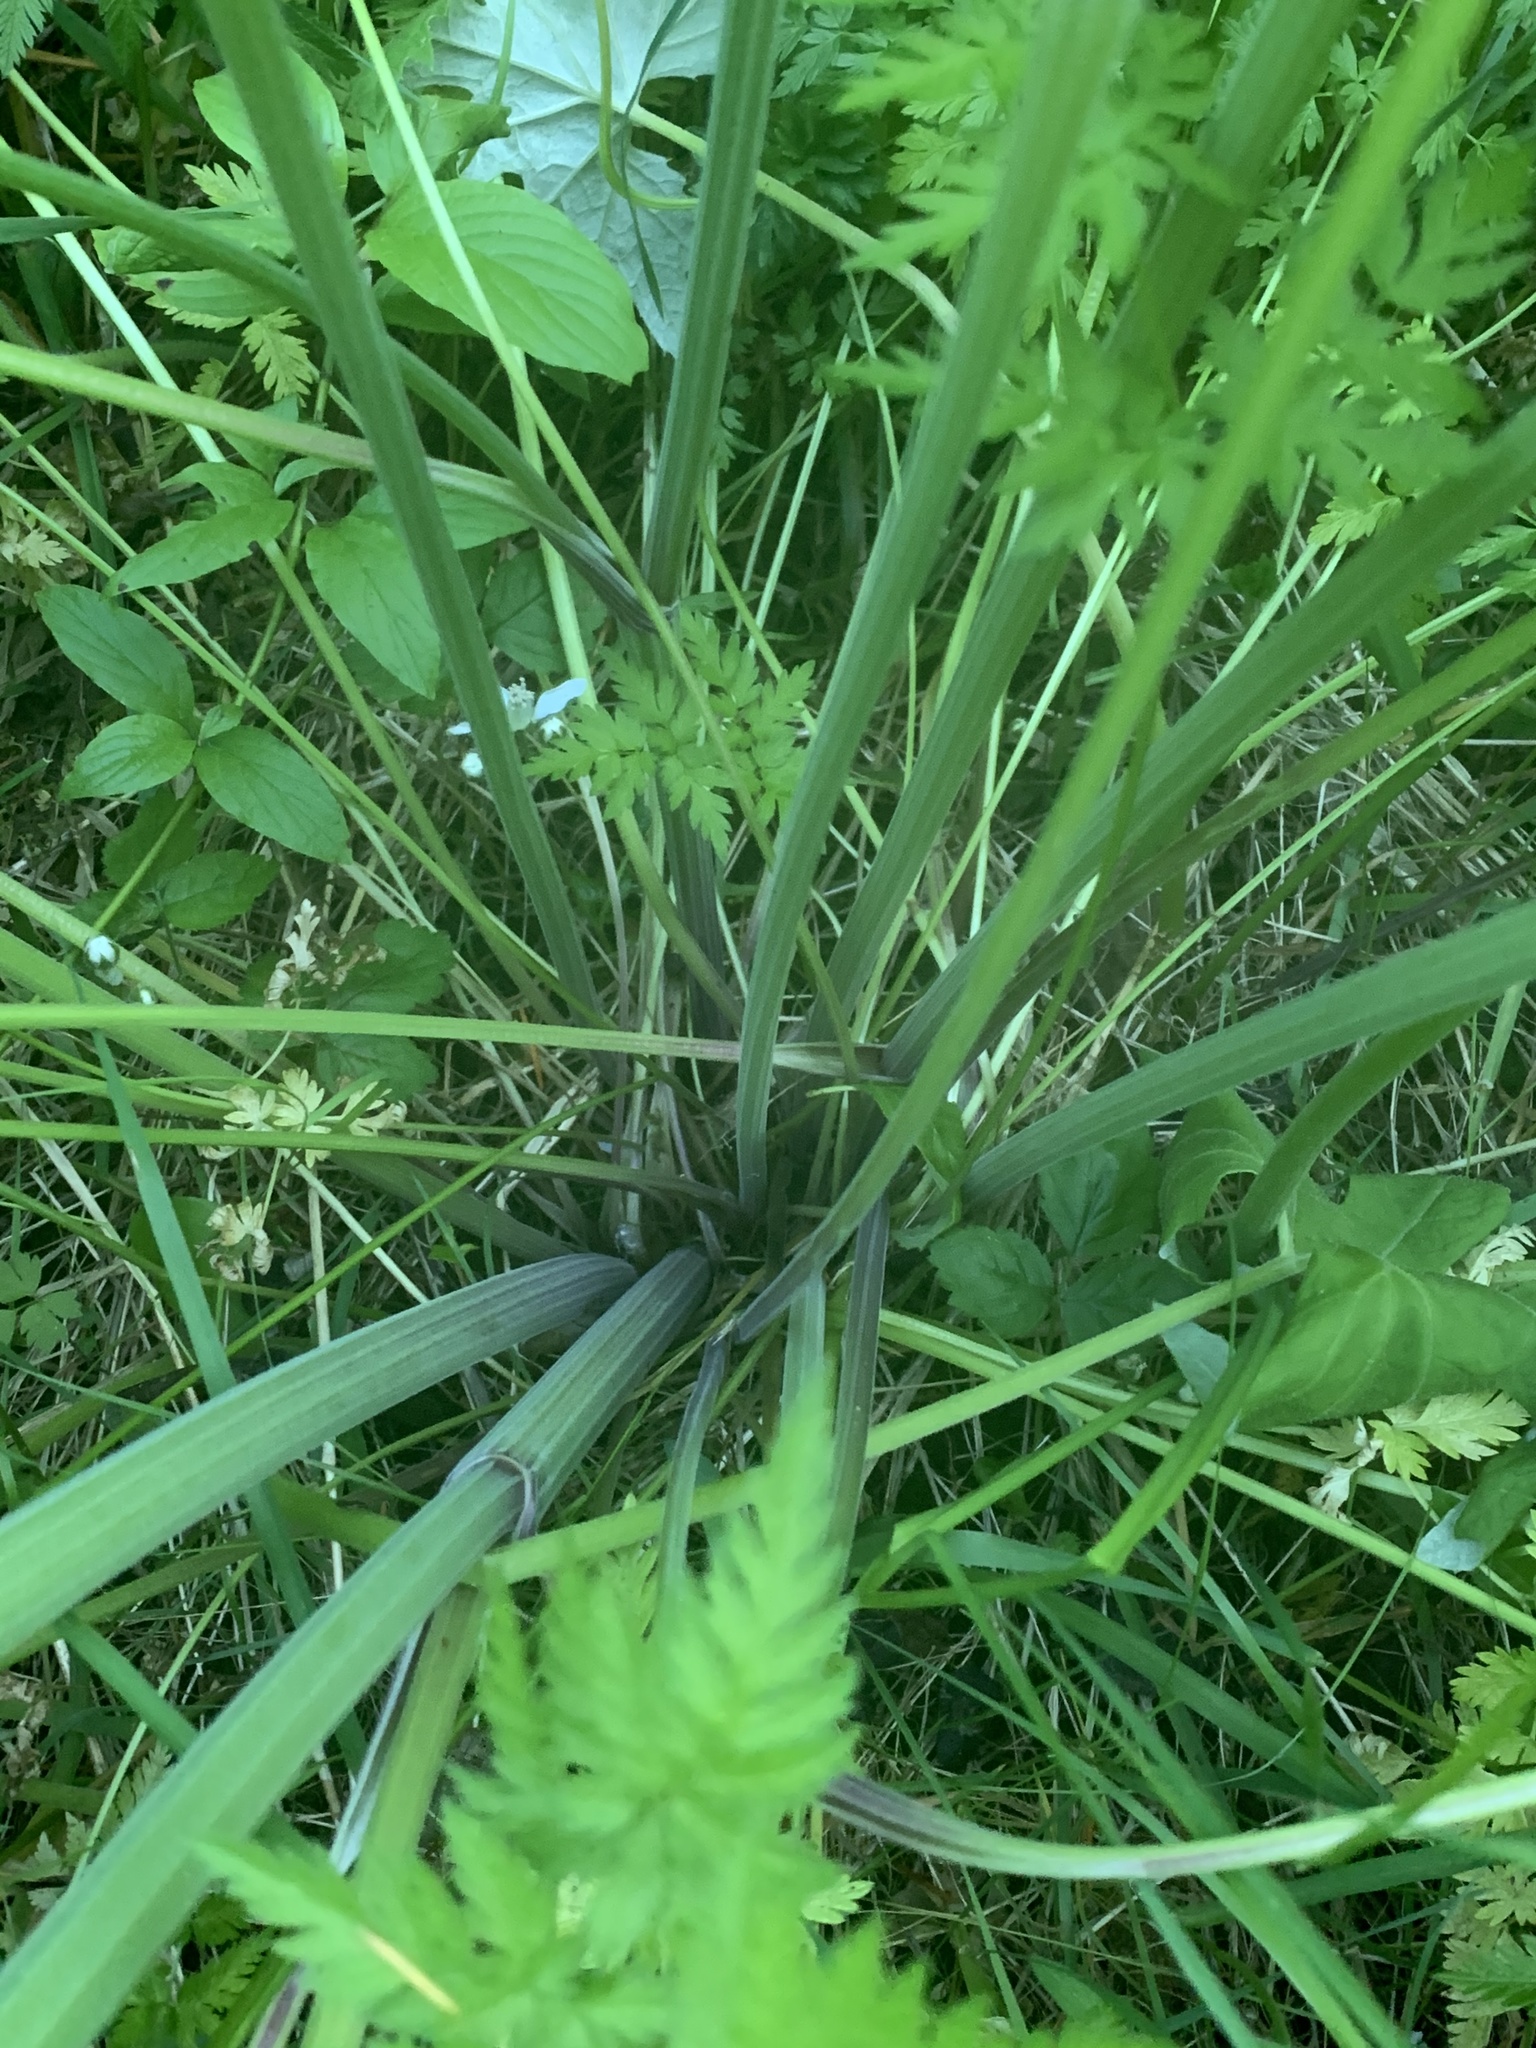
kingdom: Plantae
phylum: Tracheophyta
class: Magnoliopsida
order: Apiales
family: Apiaceae
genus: Anthriscus
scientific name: Anthriscus sylvestris
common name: Cow parsley
